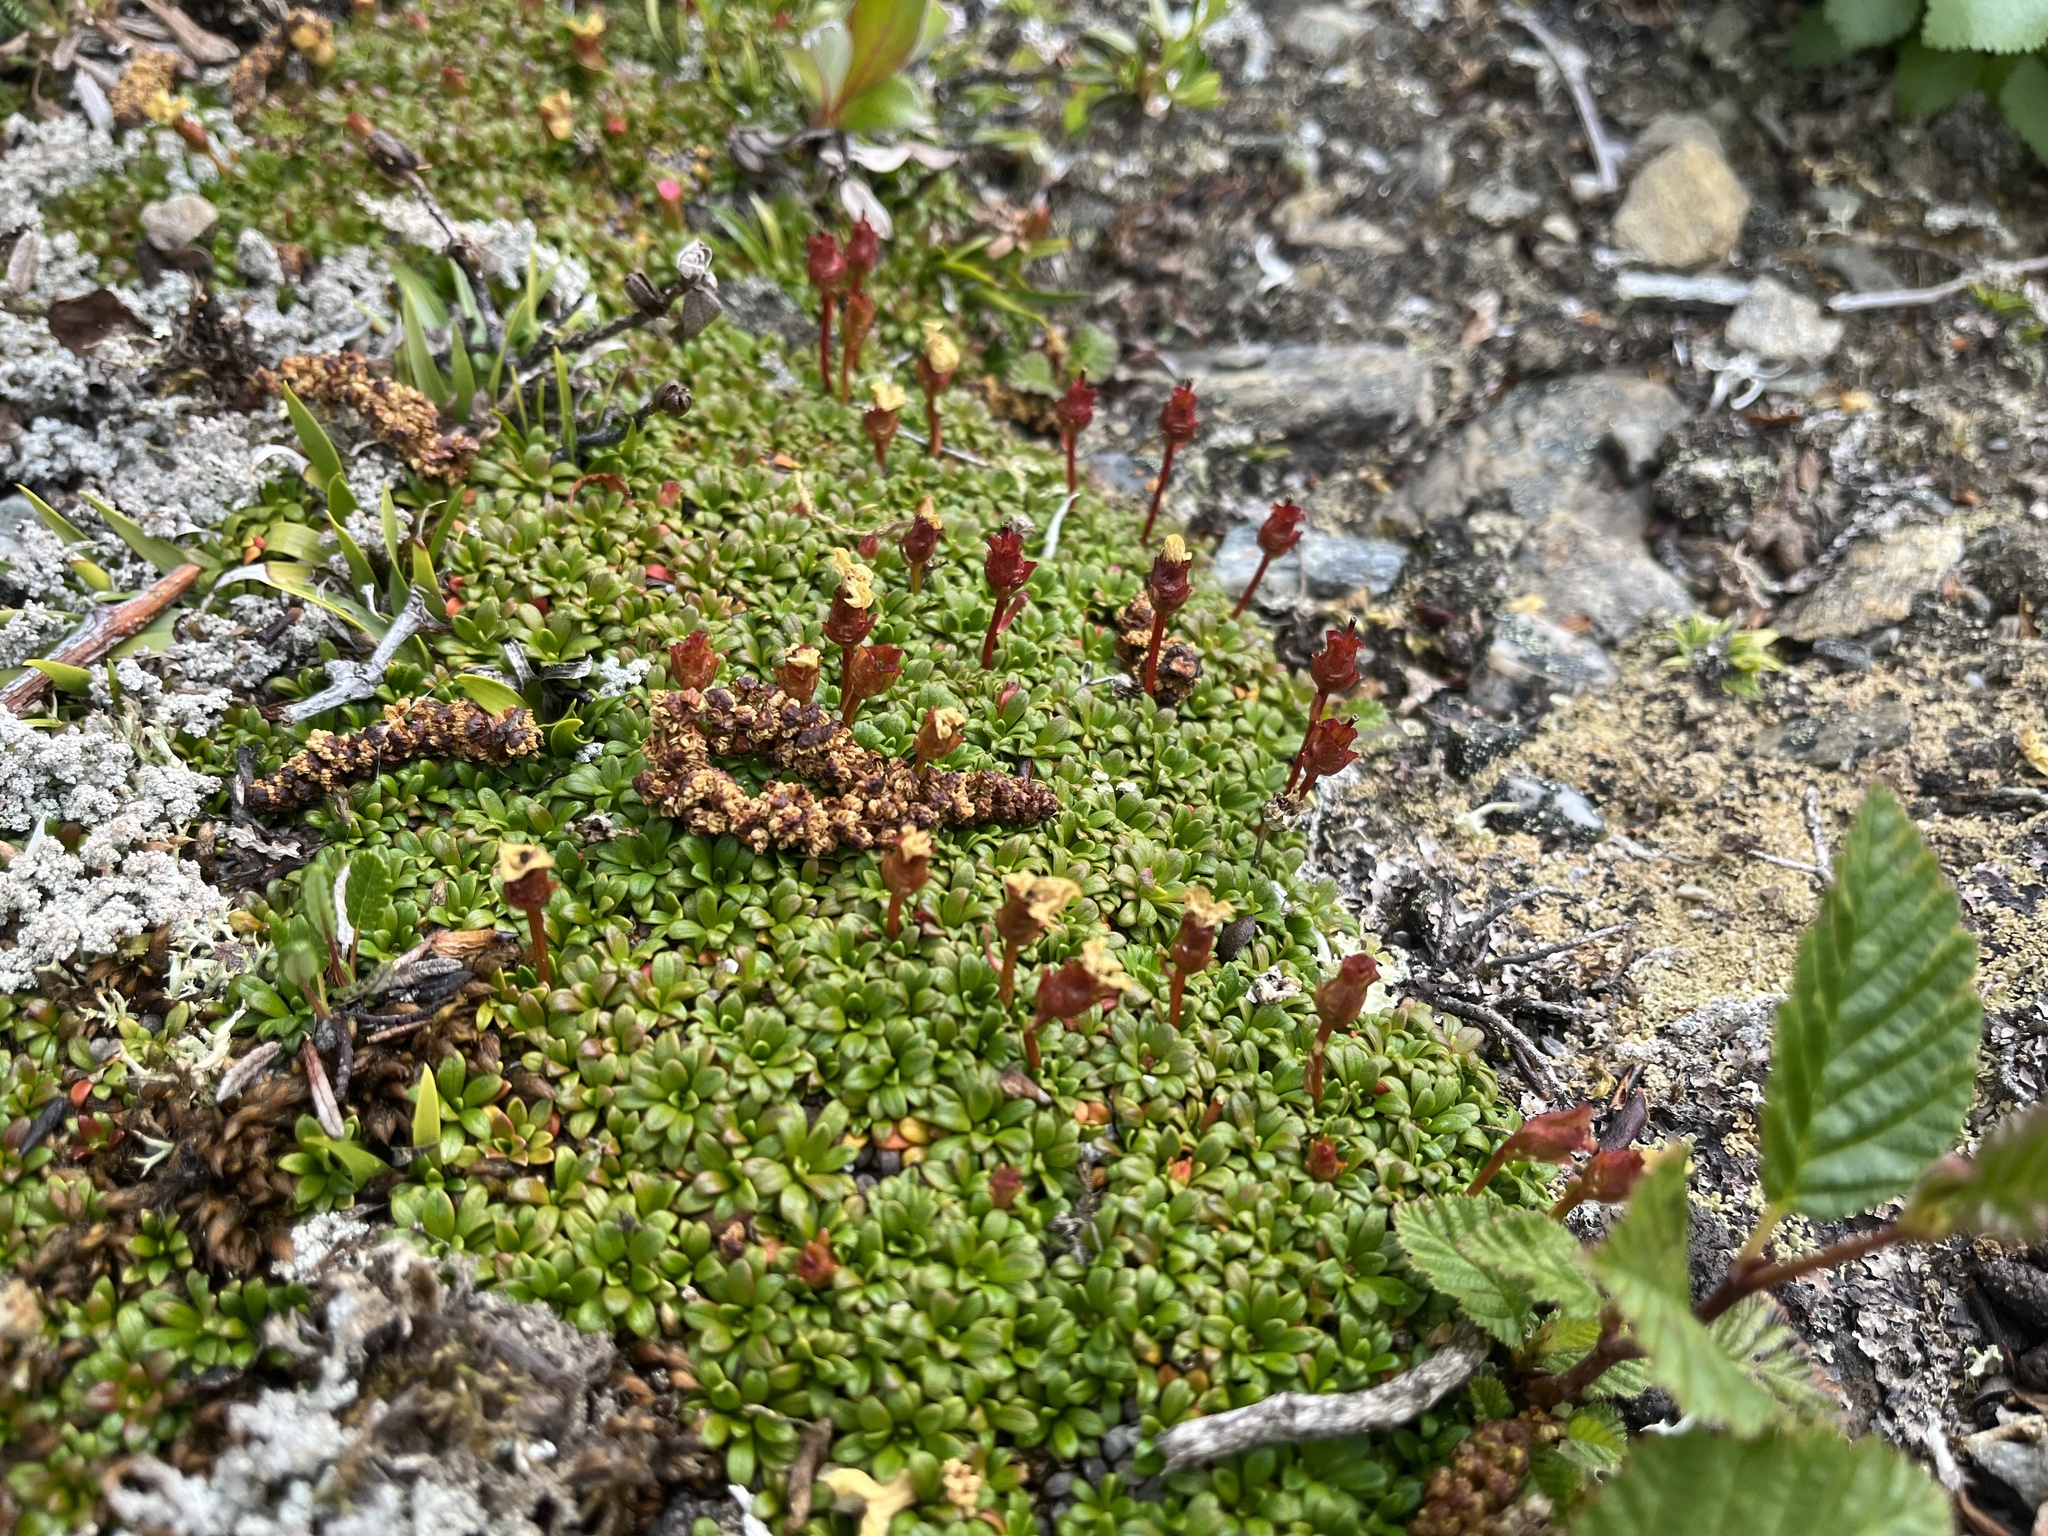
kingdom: Plantae
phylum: Tracheophyta
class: Magnoliopsida
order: Ericales
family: Diapensiaceae
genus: Diapensia
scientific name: Diapensia obovata
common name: Alaska diapensia
